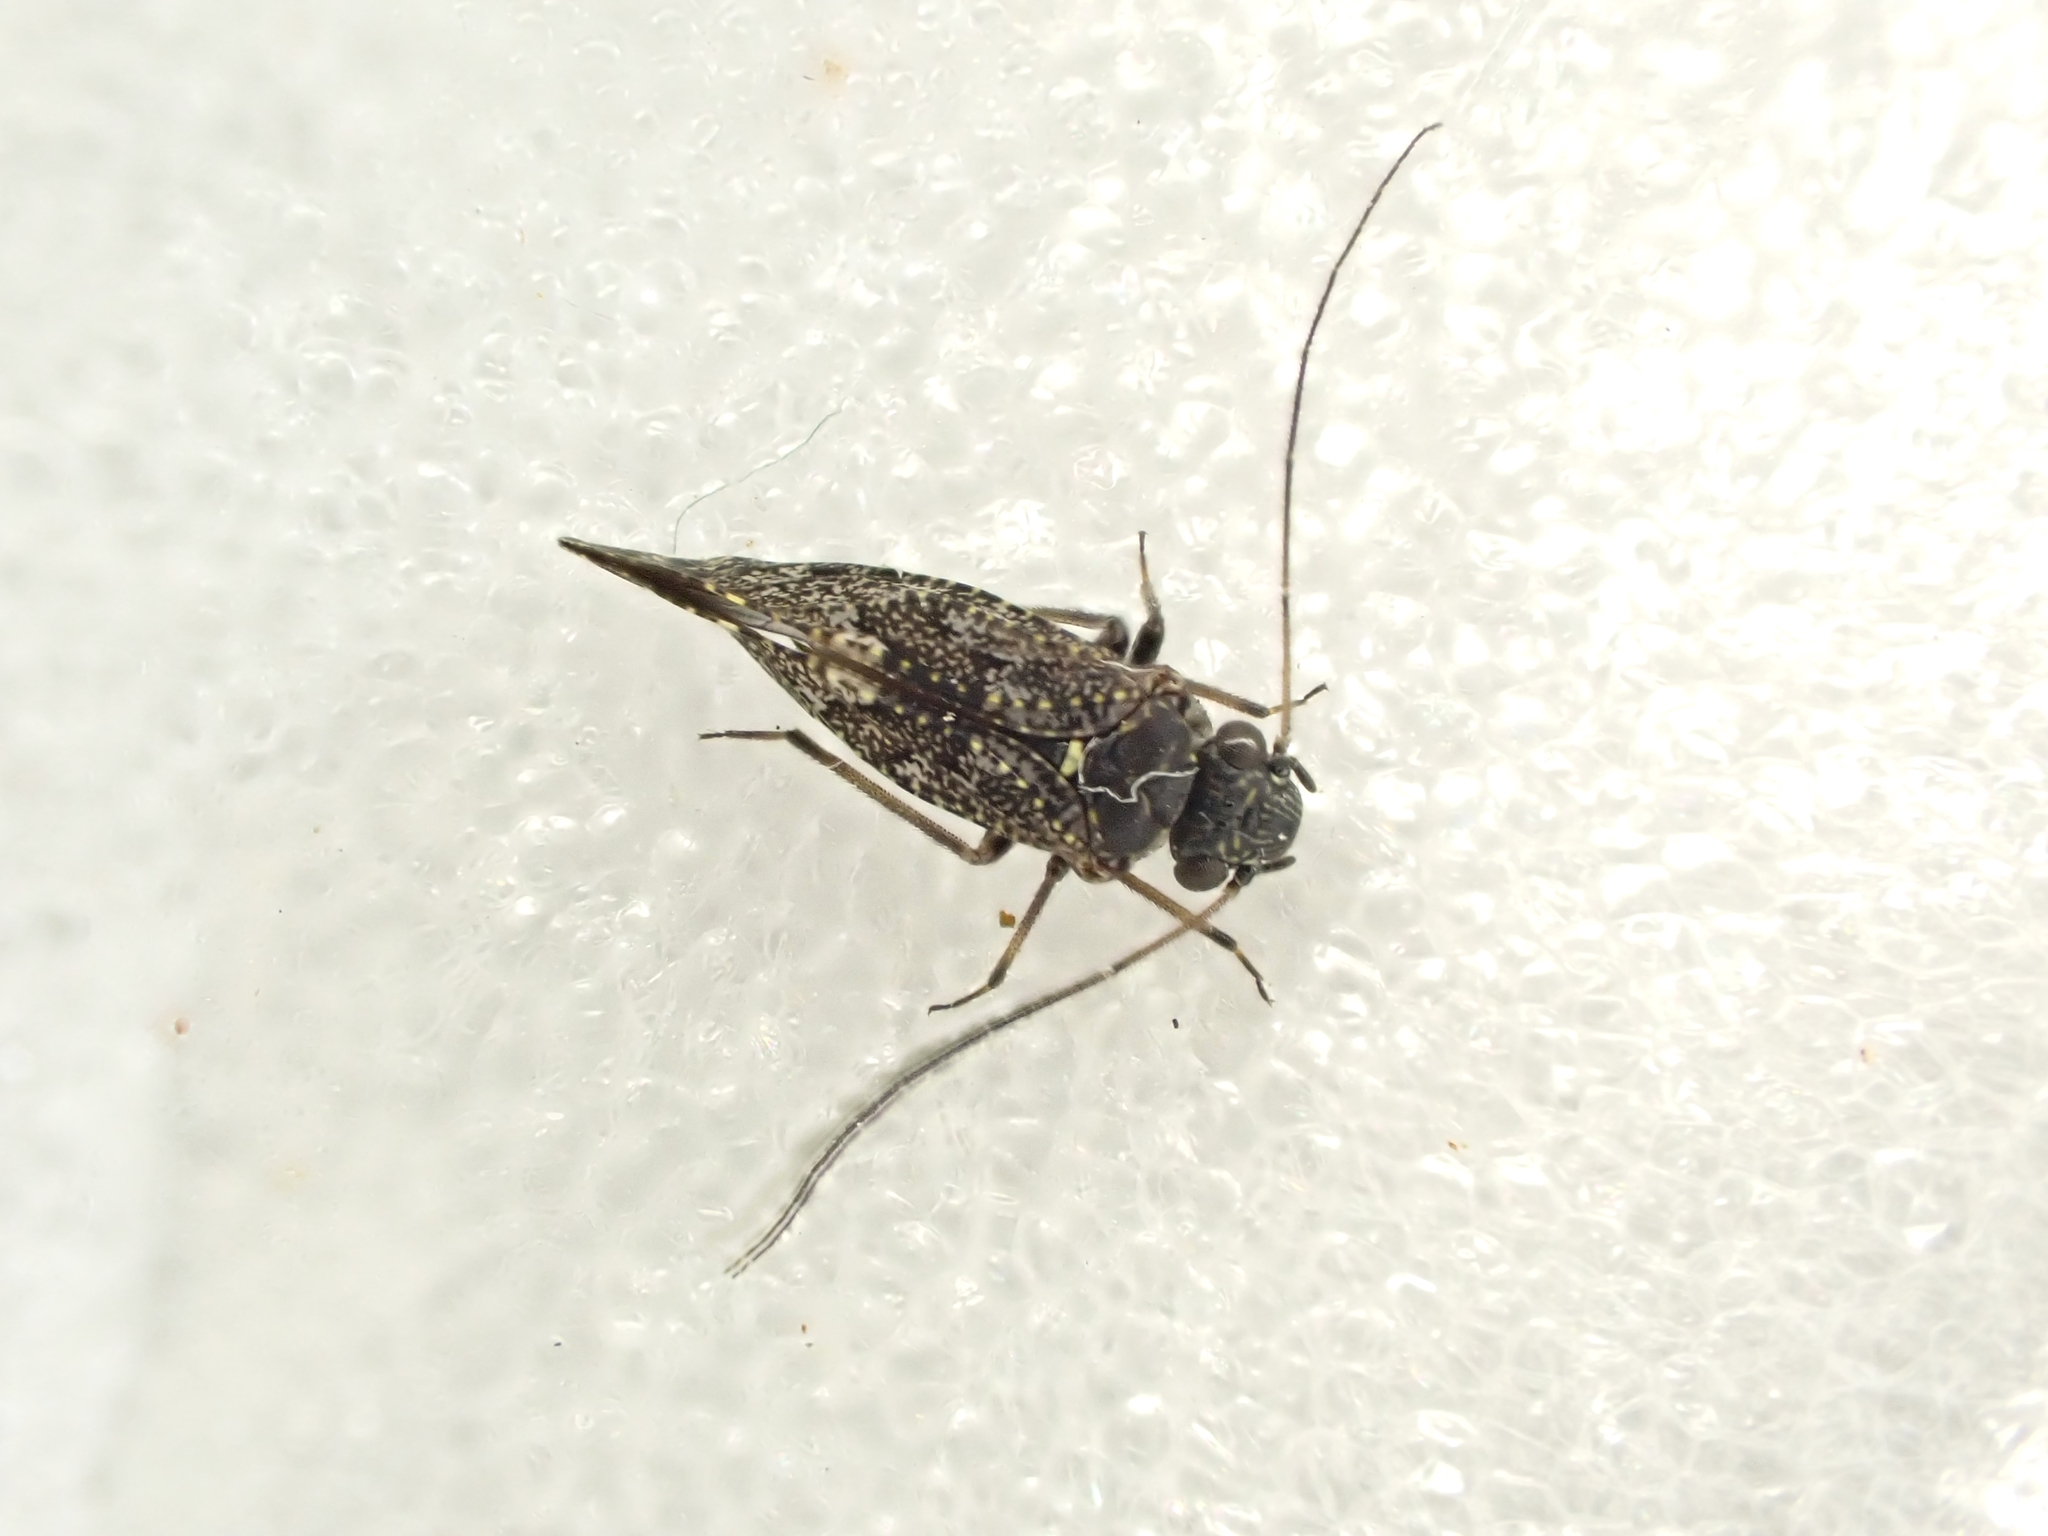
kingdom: Animalia
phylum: Arthropoda
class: Insecta
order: Psocodea
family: Myopsocidae
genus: Nimbopsocus
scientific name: Nimbopsocus australis
